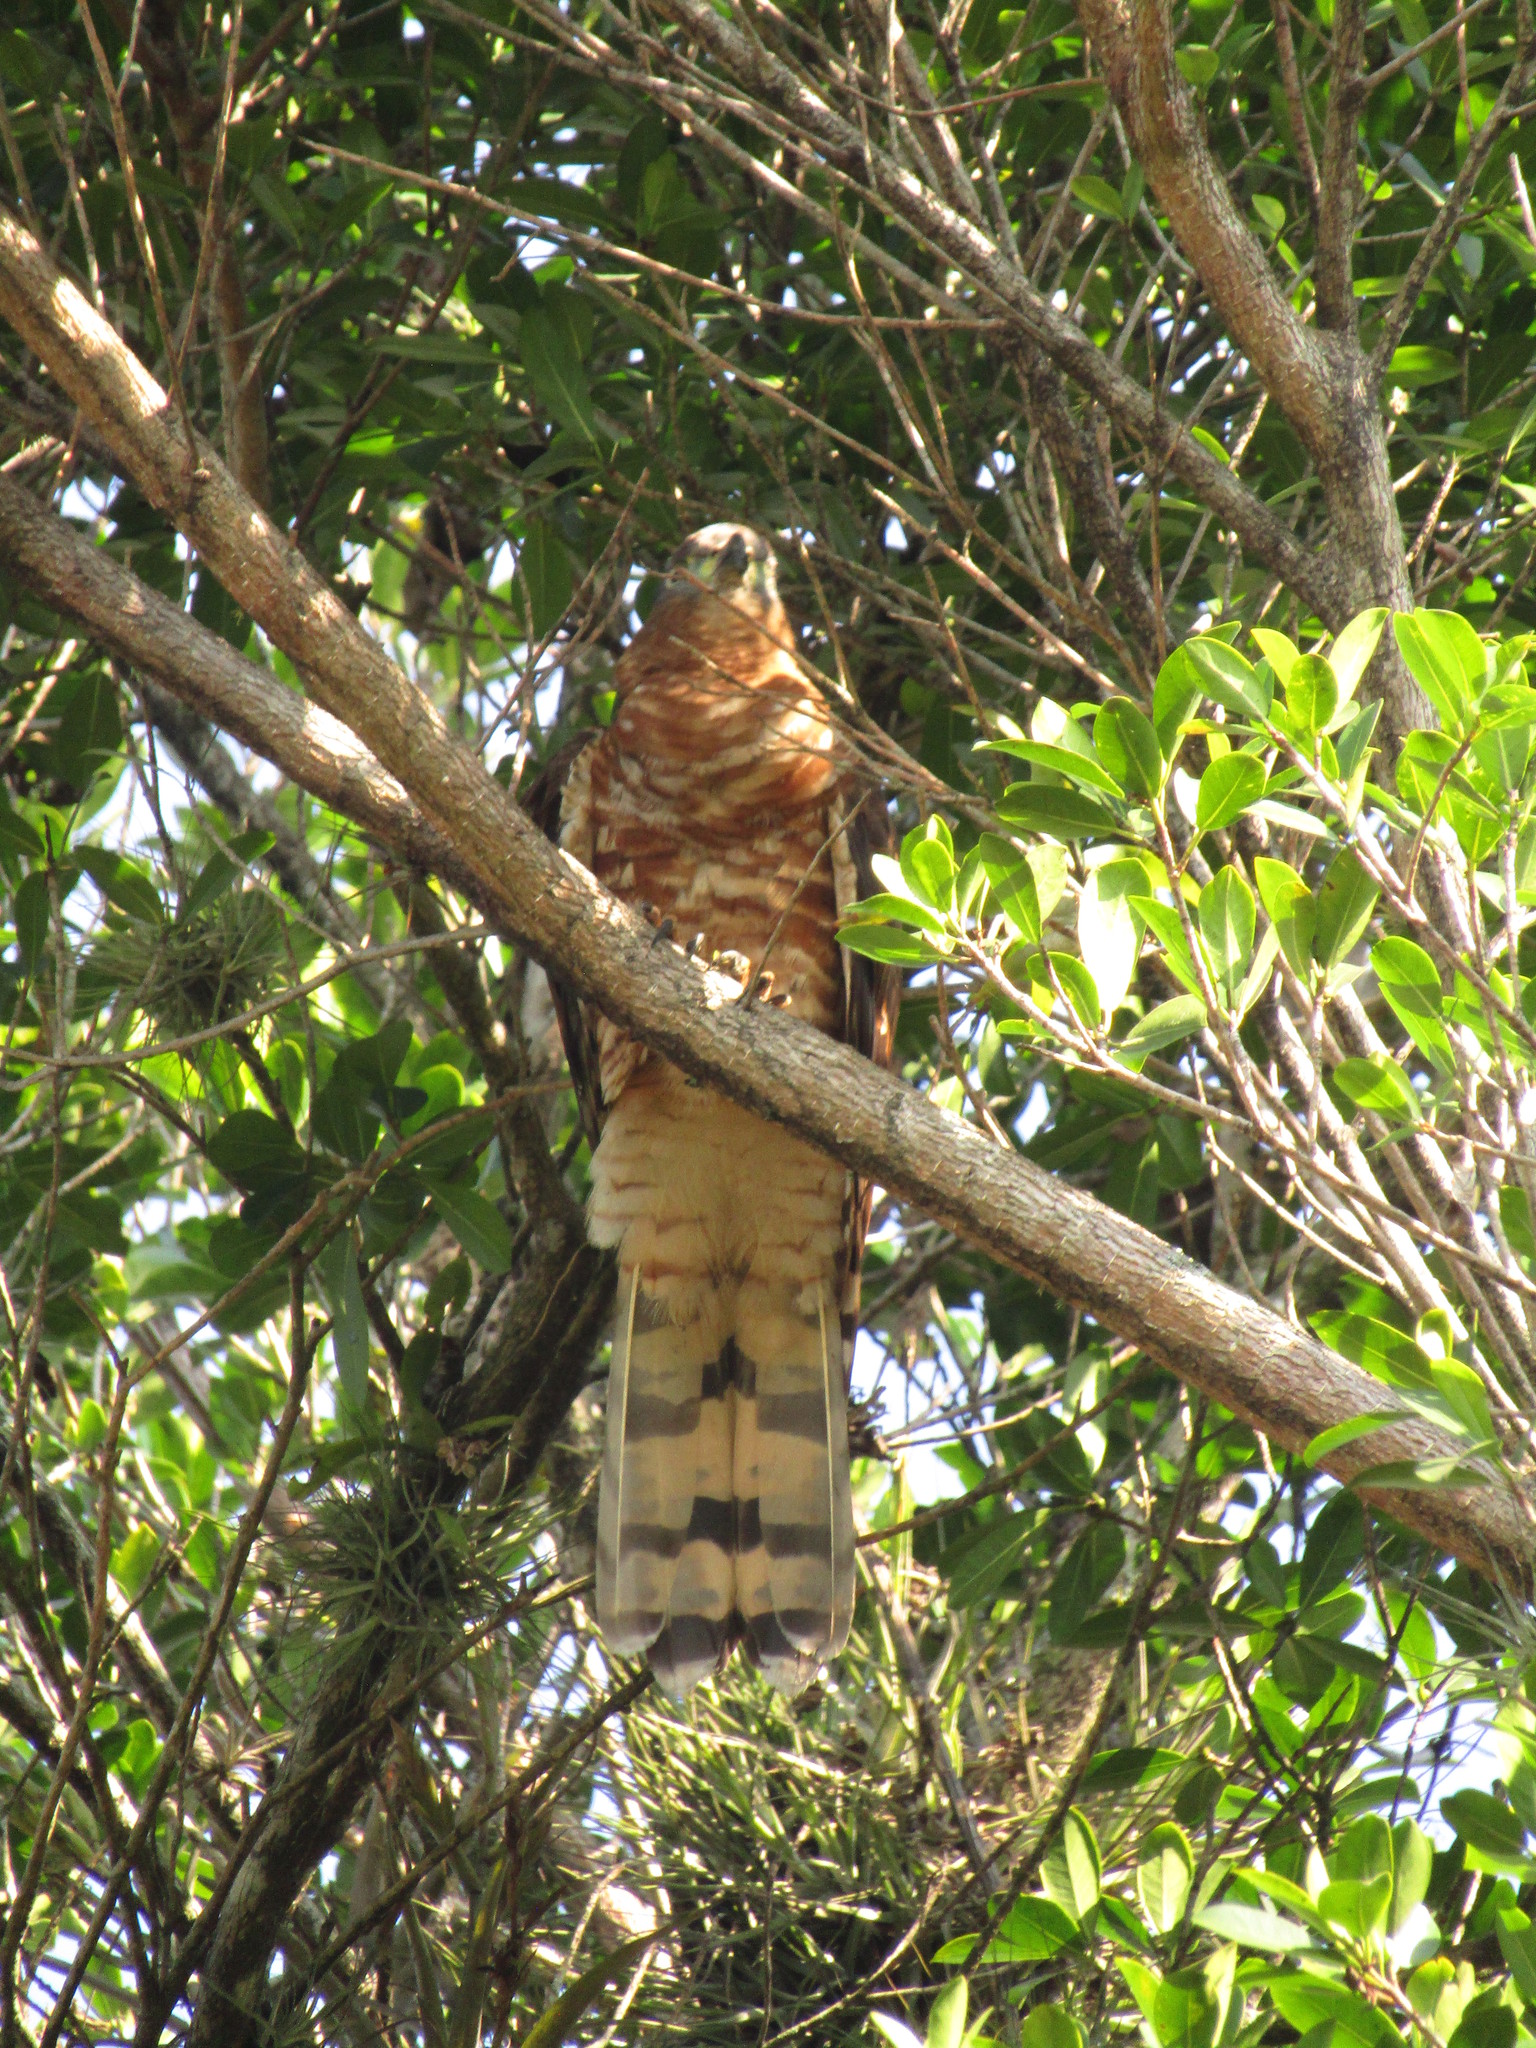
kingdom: Animalia
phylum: Chordata
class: Aves
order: Accipitriformes
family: Accipitridae
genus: Chondrohierax
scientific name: Chondrohierax uncinatus
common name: Hook-billed kite
